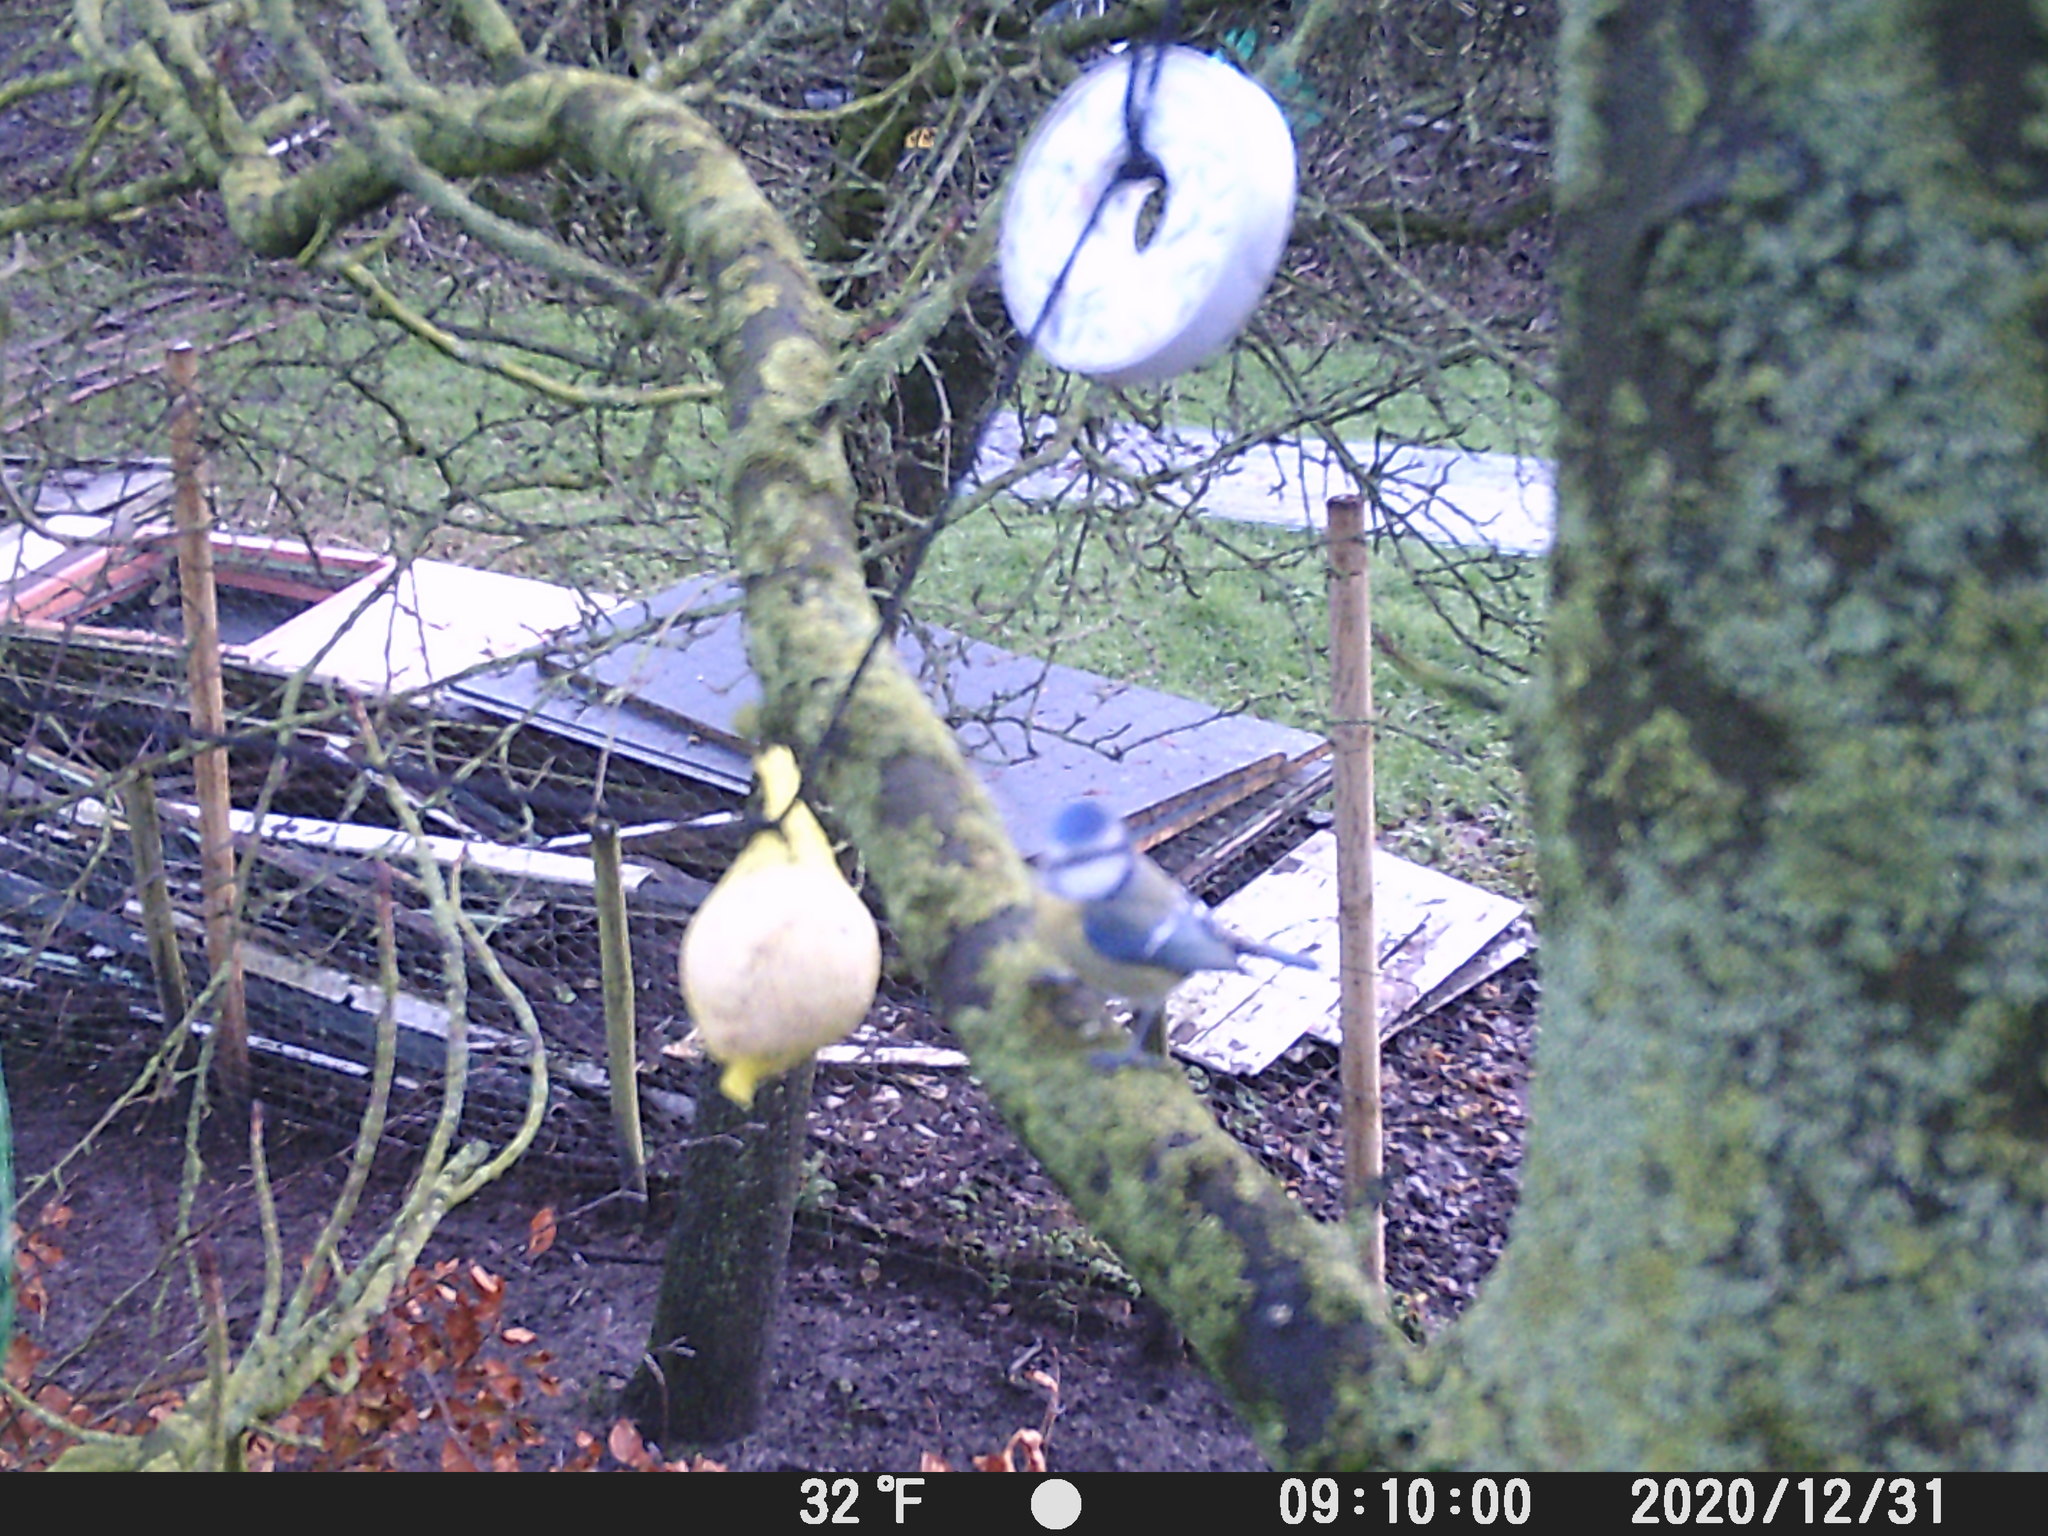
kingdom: Animalia
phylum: Chordata
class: Aves
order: Passeriformes
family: Paridae
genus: Cyanistes
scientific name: Cyanistes caeruleus
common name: Eurasian blue tit
